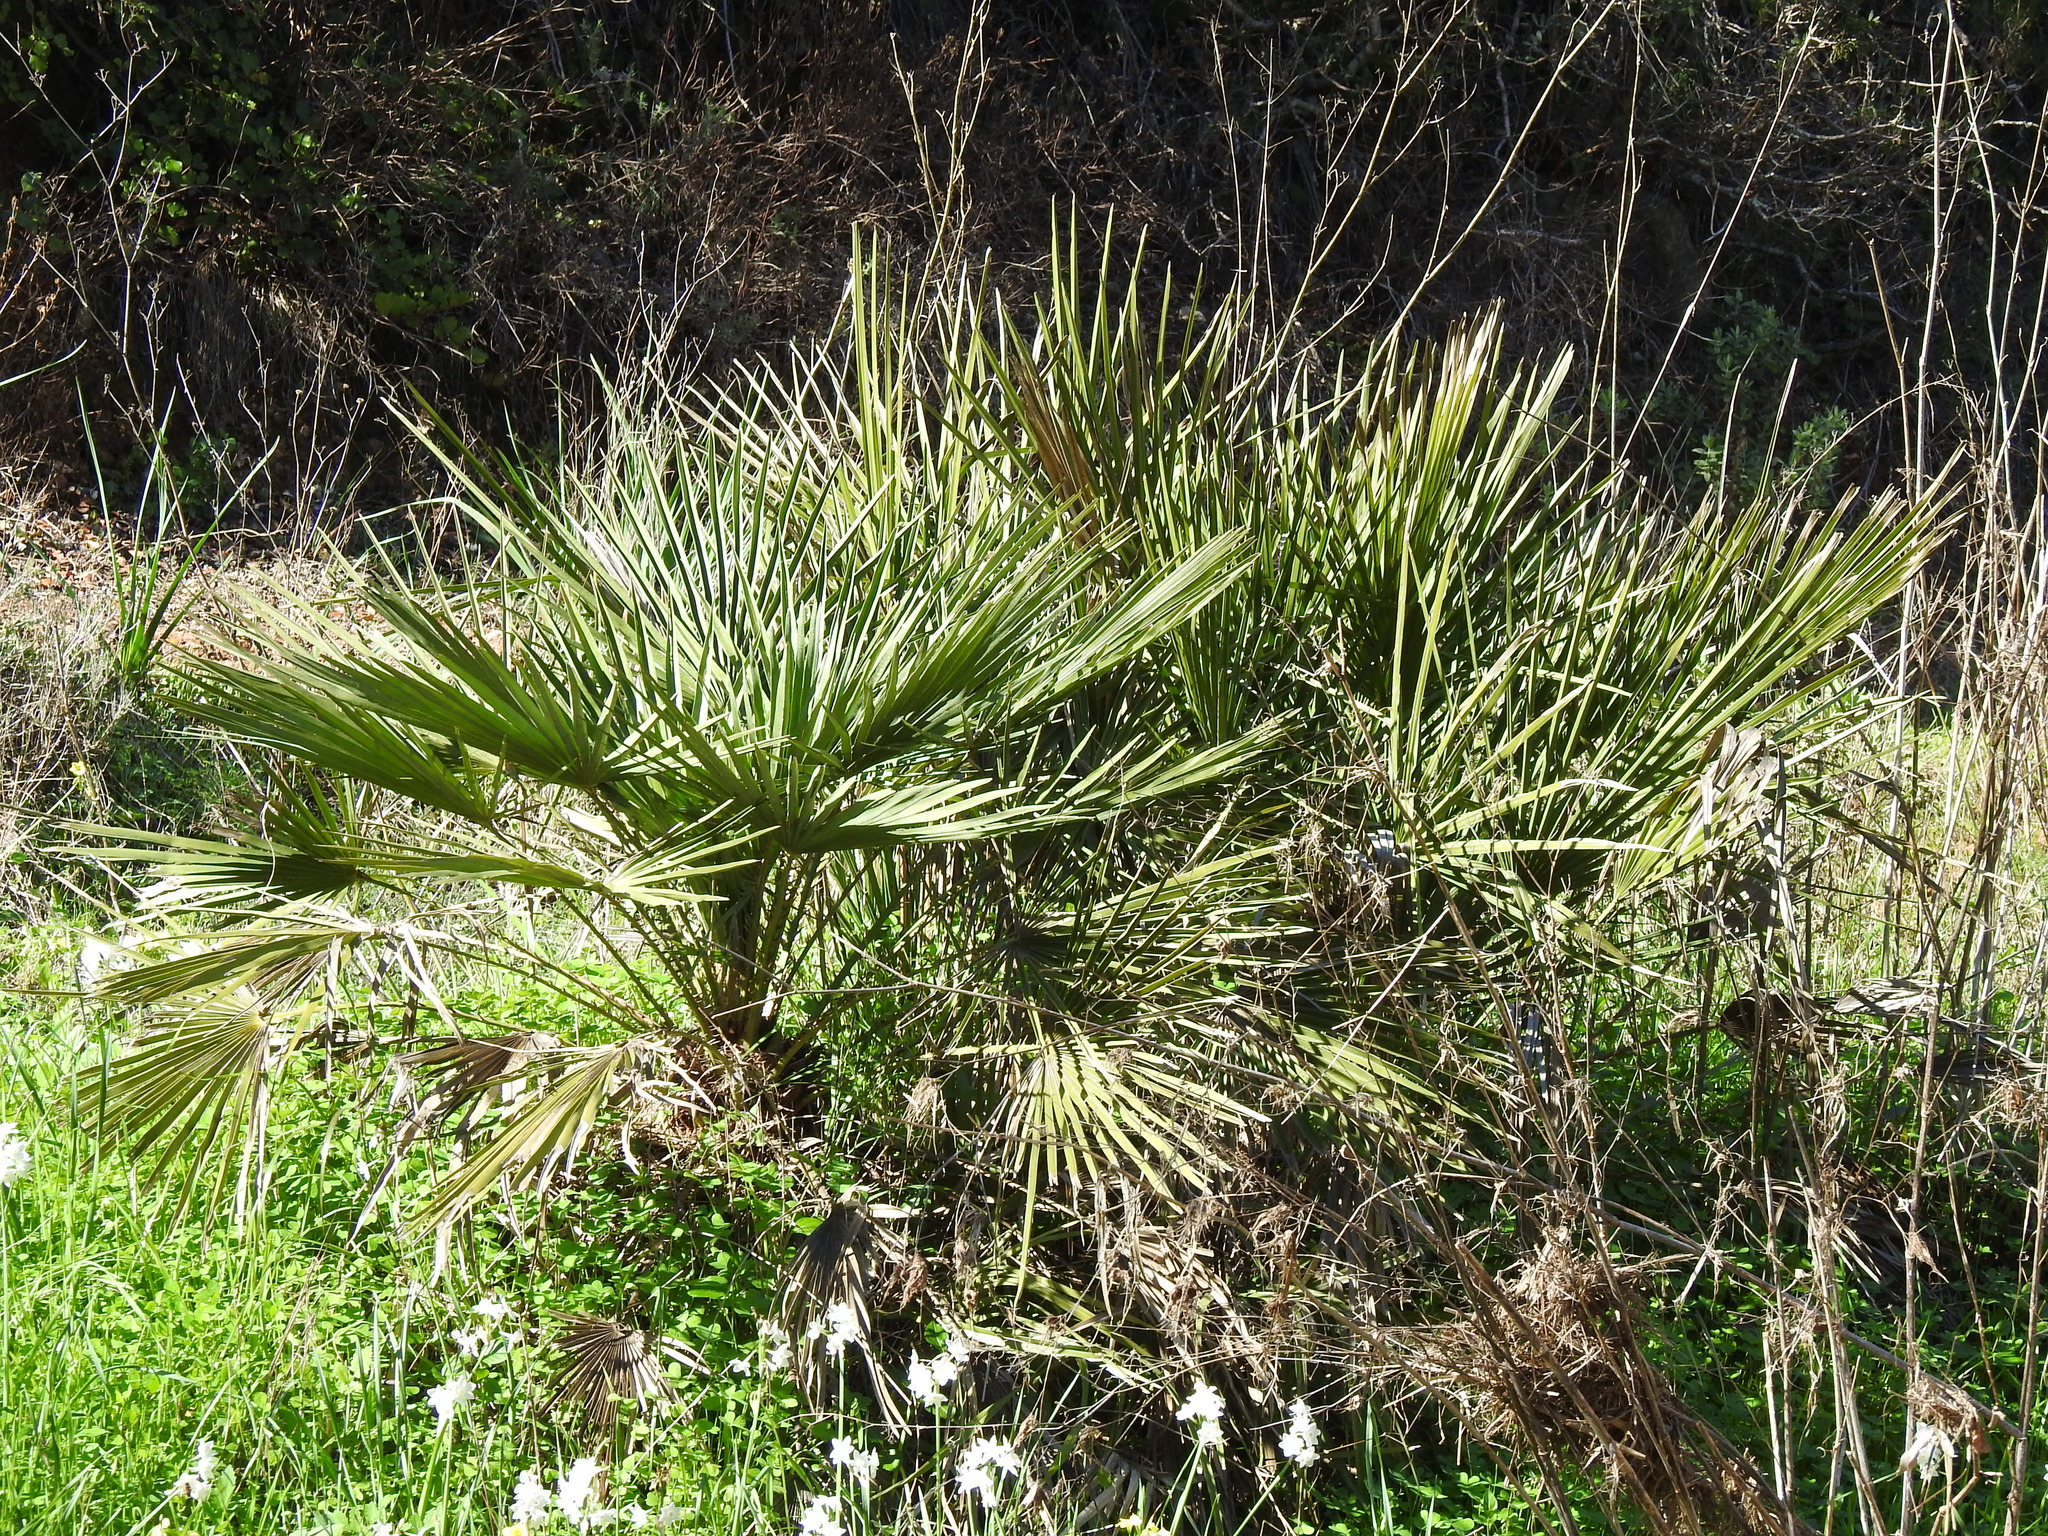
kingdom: Plantae
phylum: Tracheophyta
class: Liliopsida
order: Arecales
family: Arecaceae
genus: Chamaerops
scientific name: Chamaerops humilis
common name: Dwarf fan palm
